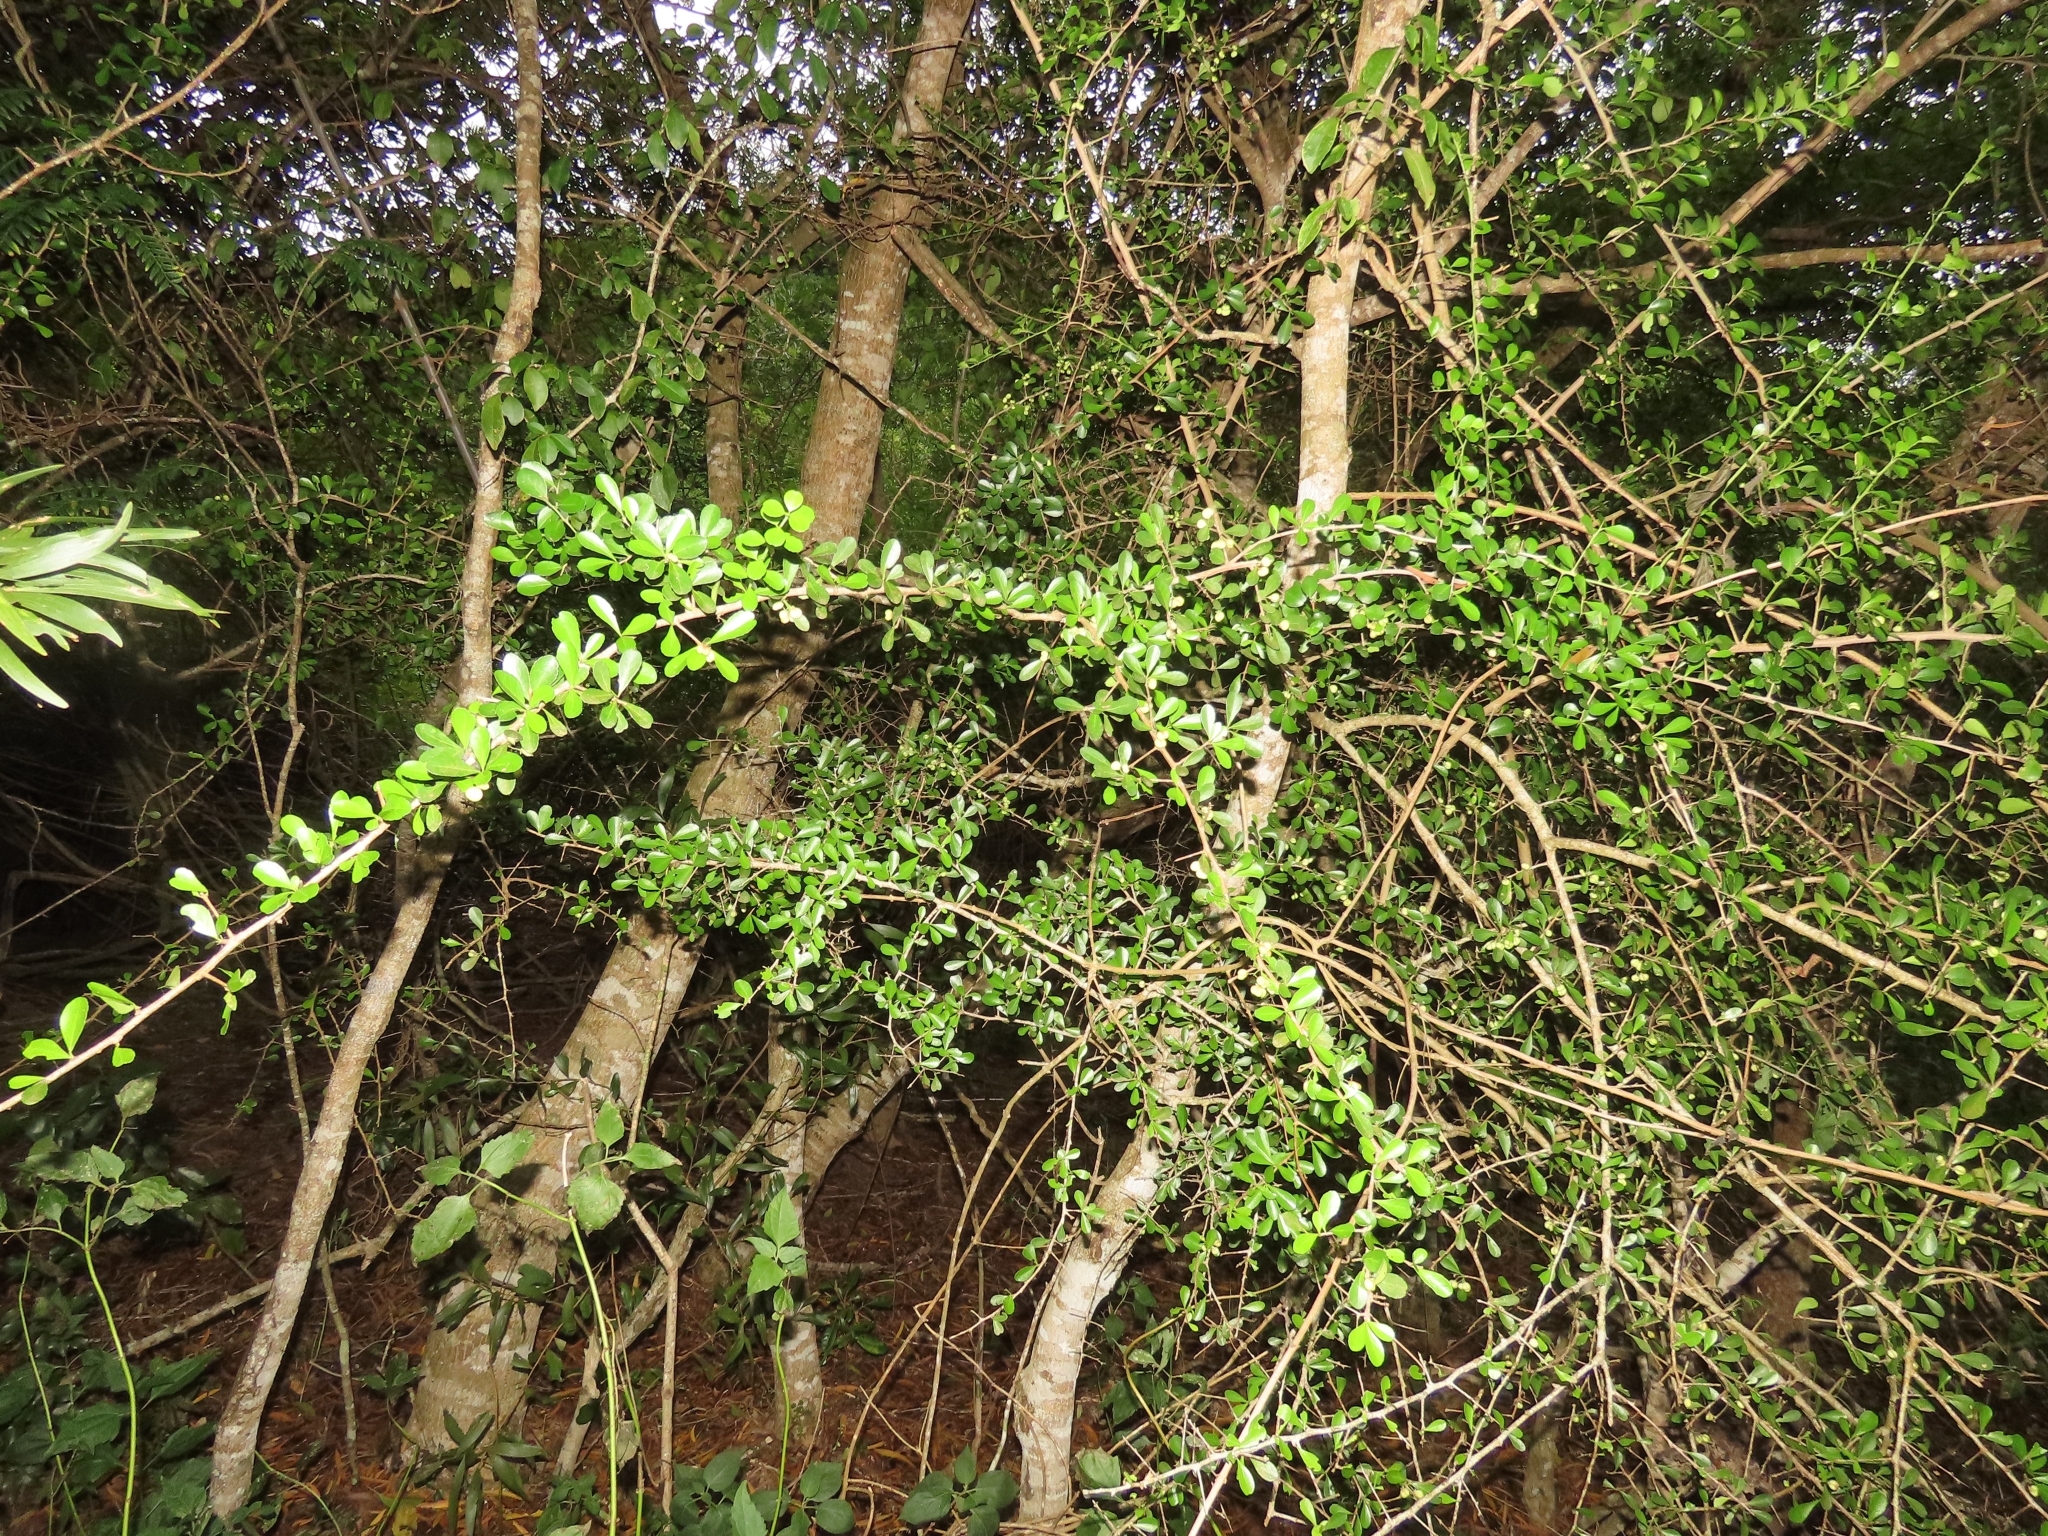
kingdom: Plantae
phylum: Tracheophyta
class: Magnoliopsida
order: Celastrales
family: Celastraceae
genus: Gymnosporia
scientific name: Gymnosporia diversifolia
